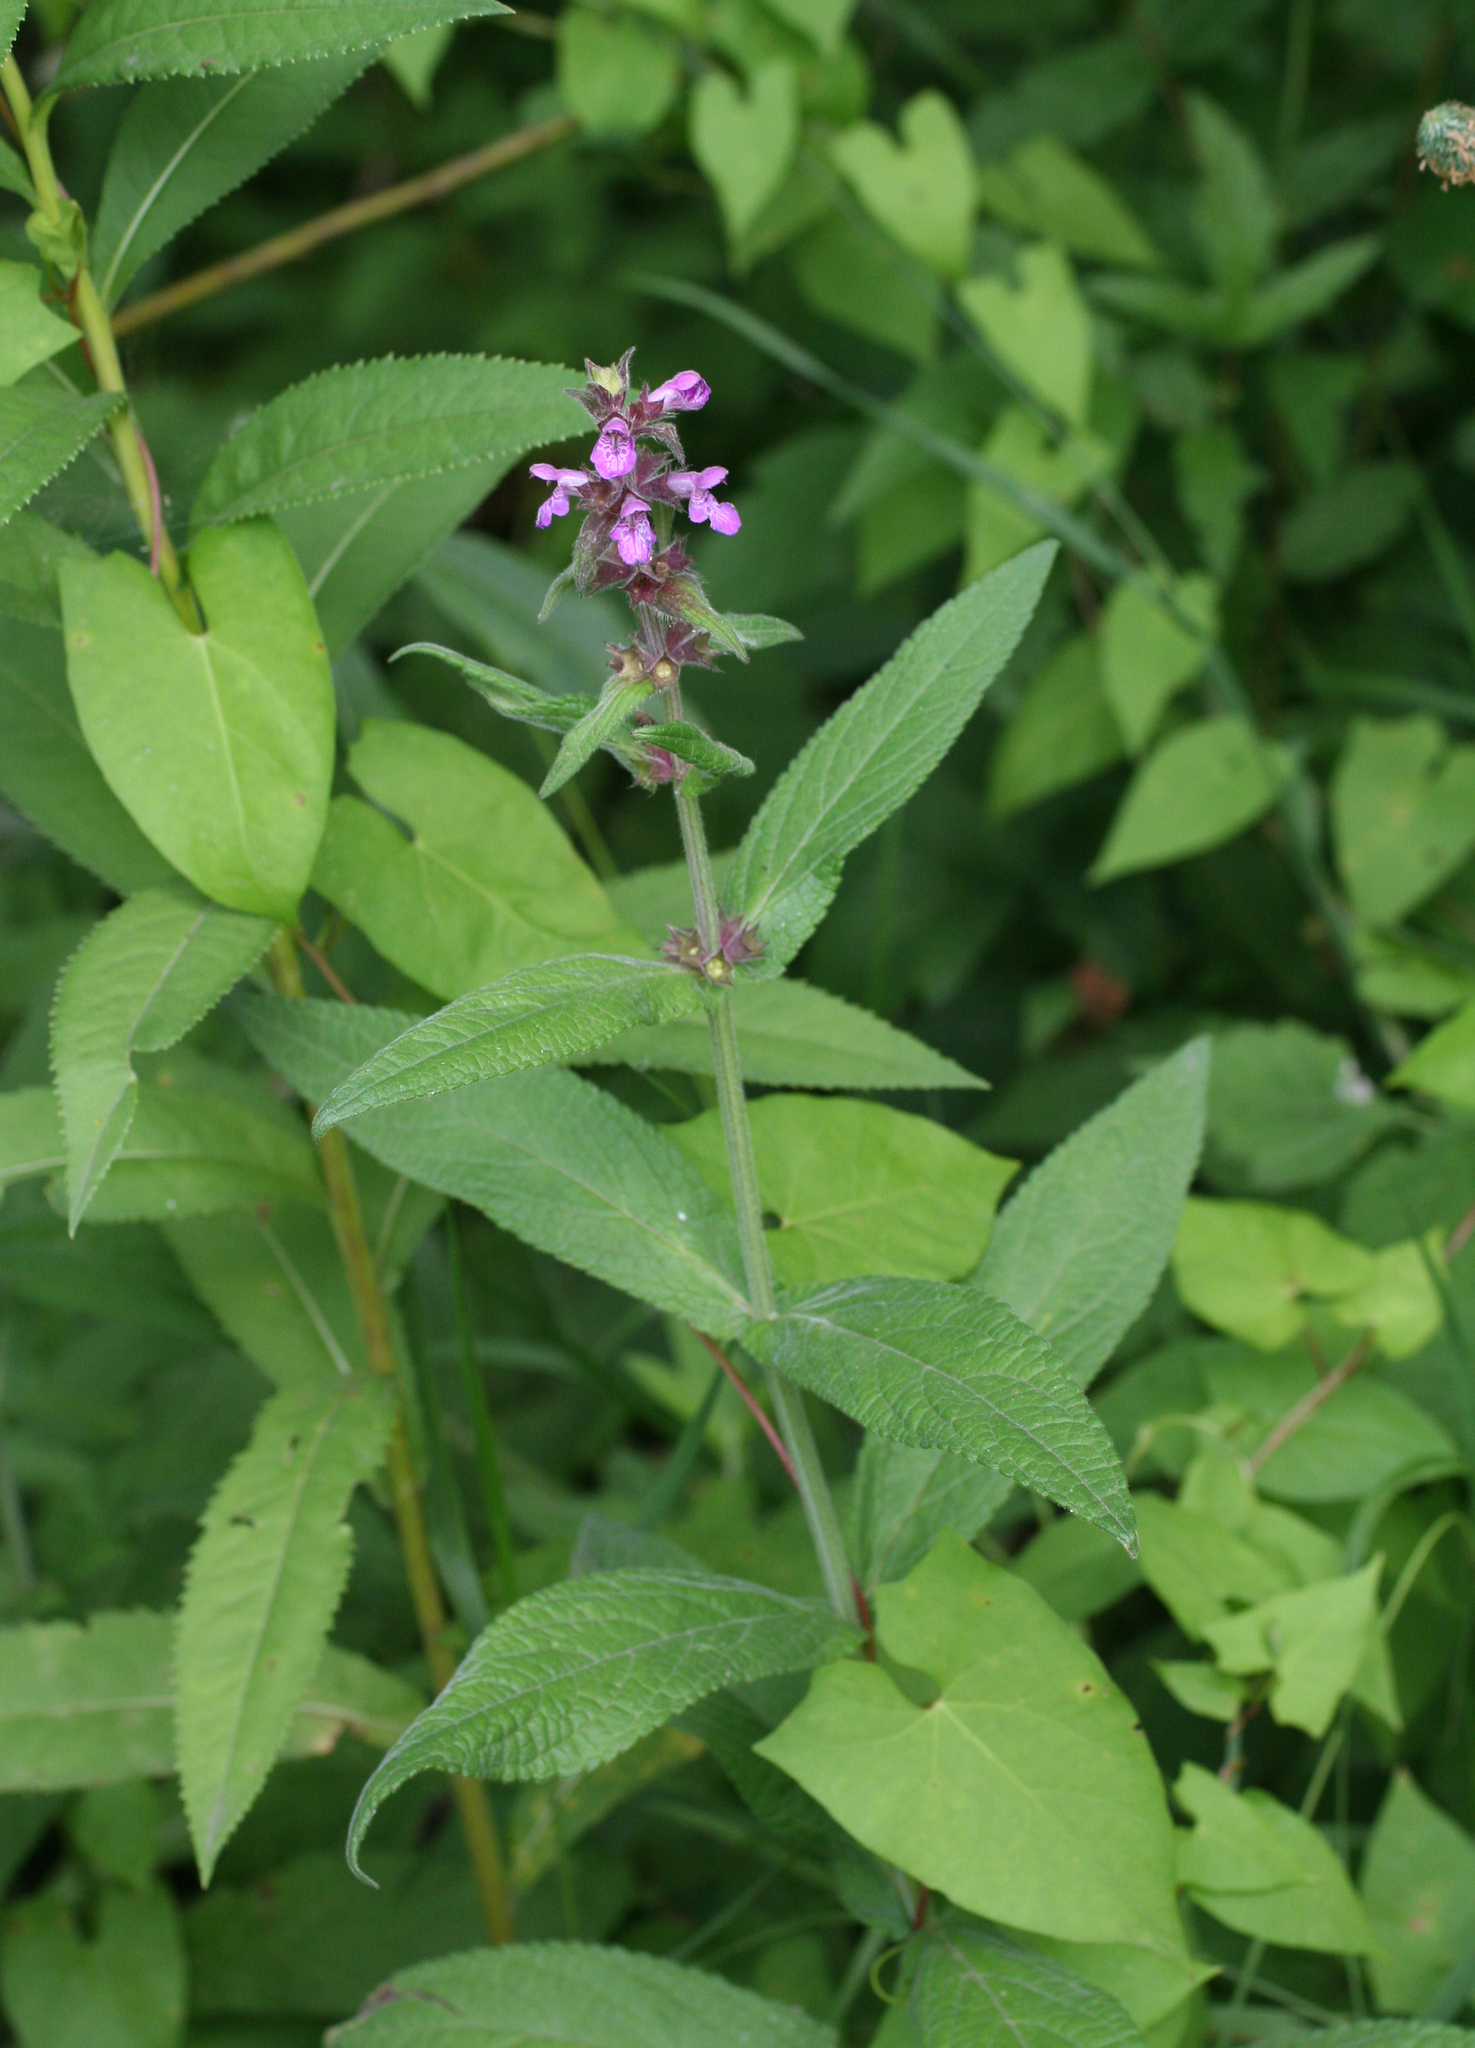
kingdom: Plantae
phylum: Tracheophyta
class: Magnoliopsida
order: Lamiales
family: Lamiaceae
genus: Stachys
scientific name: Stachys palustris
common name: Marsh woundwort
